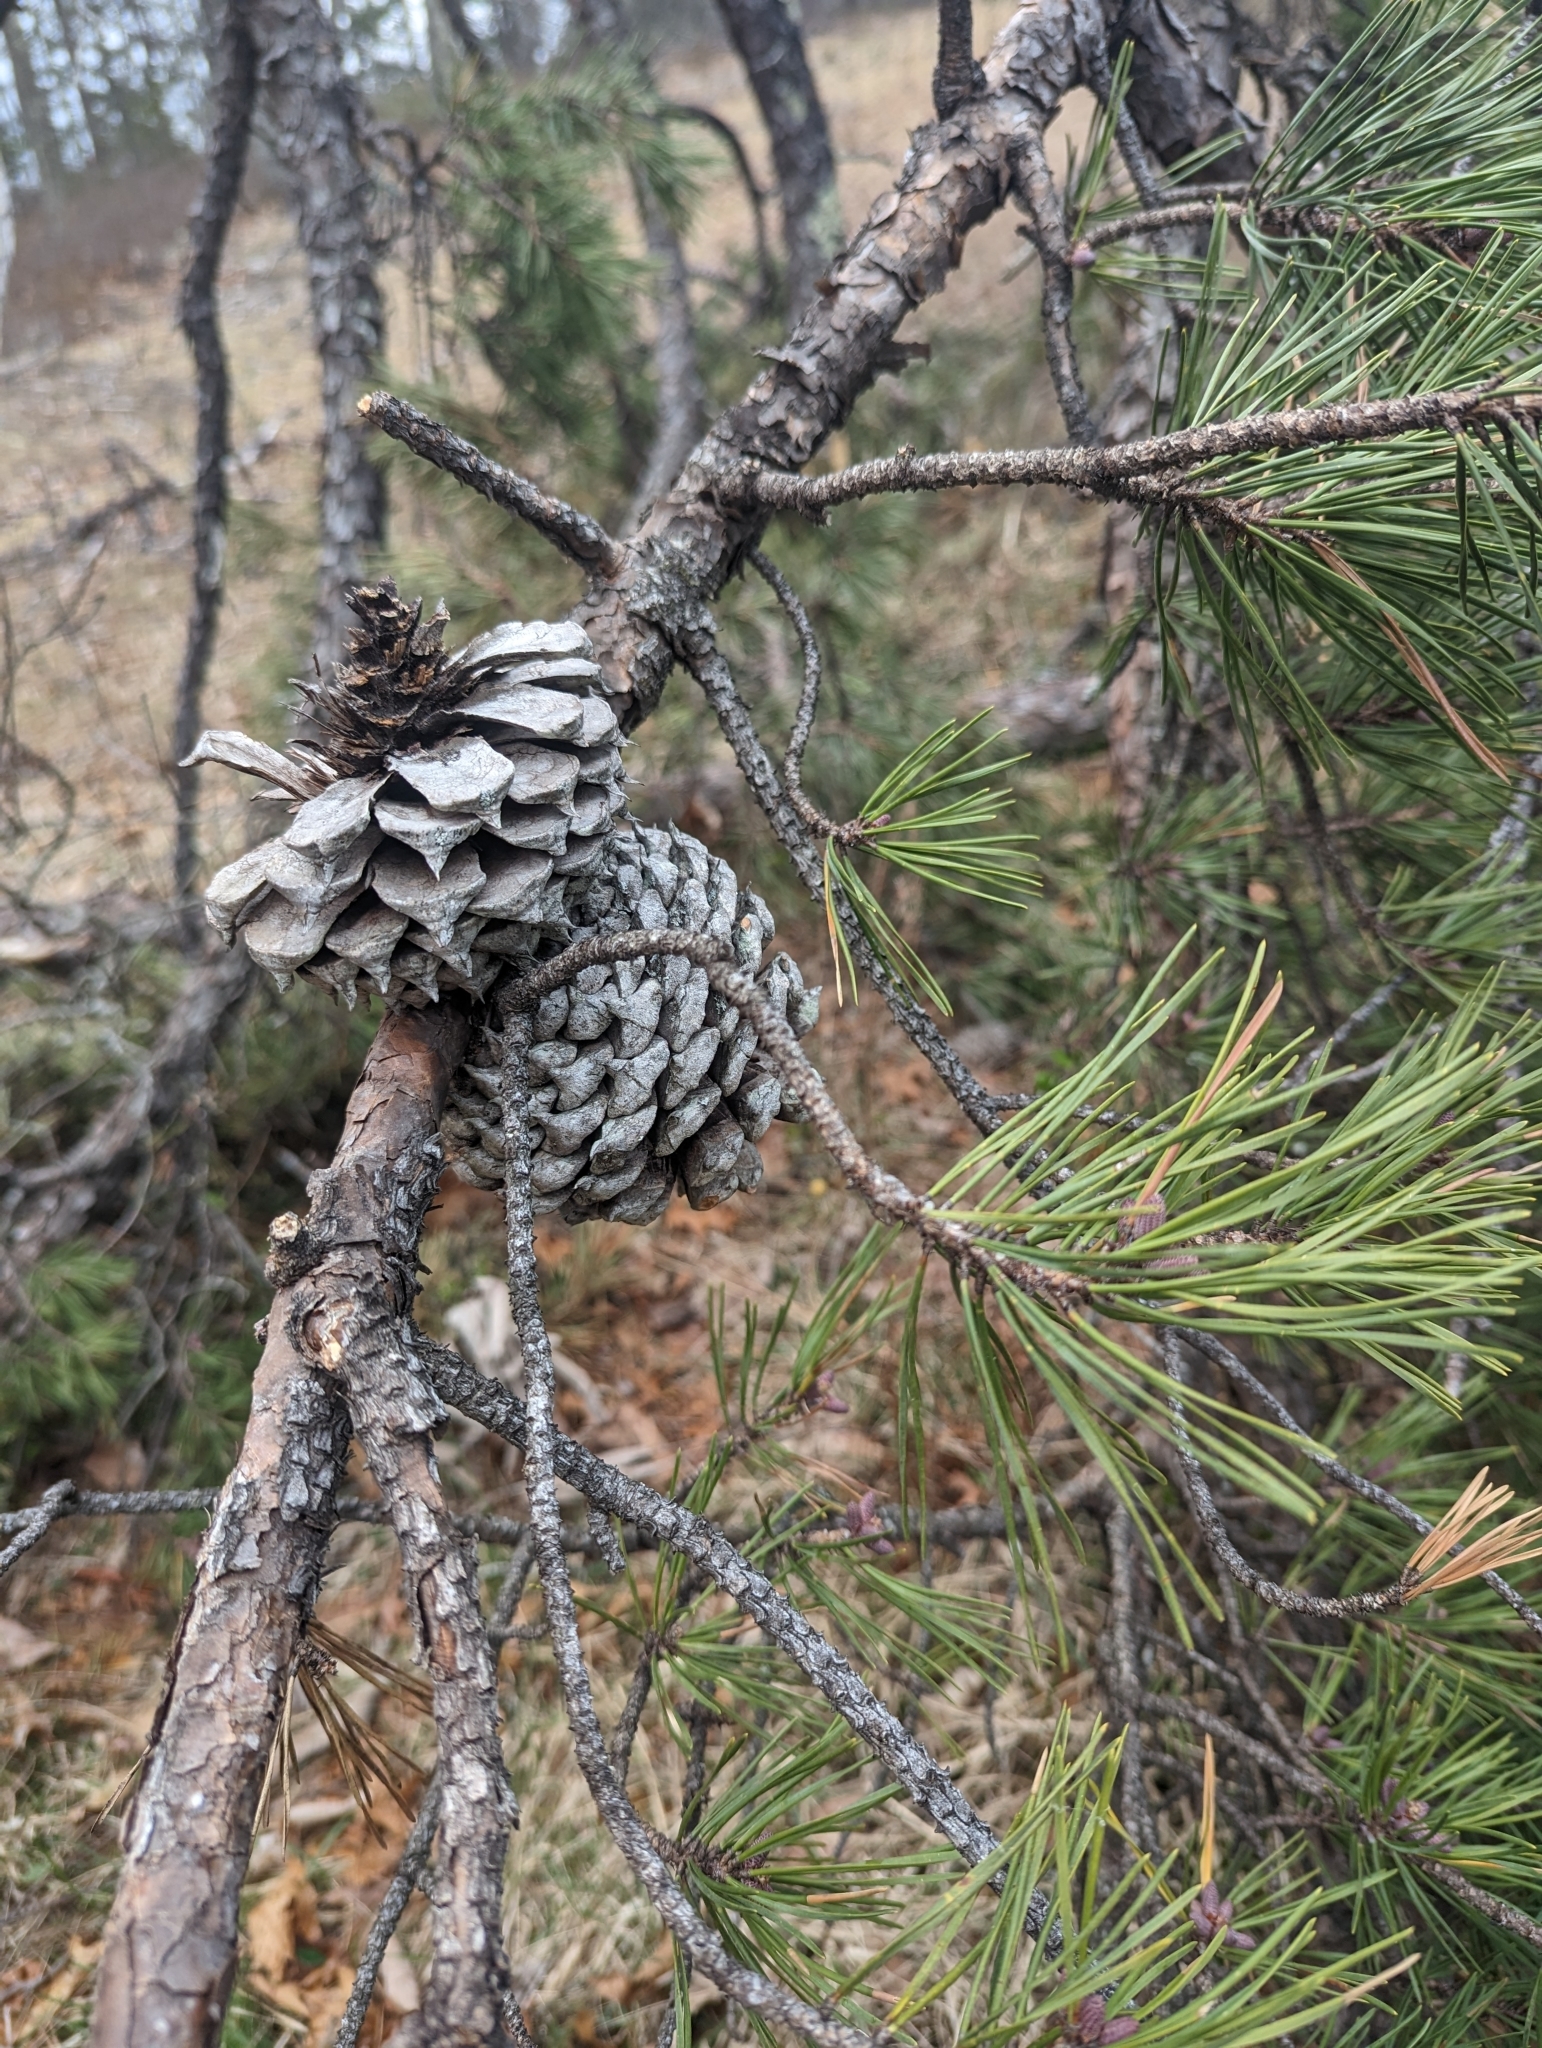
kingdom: Plantae
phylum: Tracheophyta
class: Pinopsida
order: Pinales
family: Pinaceae
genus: Pinus
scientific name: Pinus pungens
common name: Hickory pine
